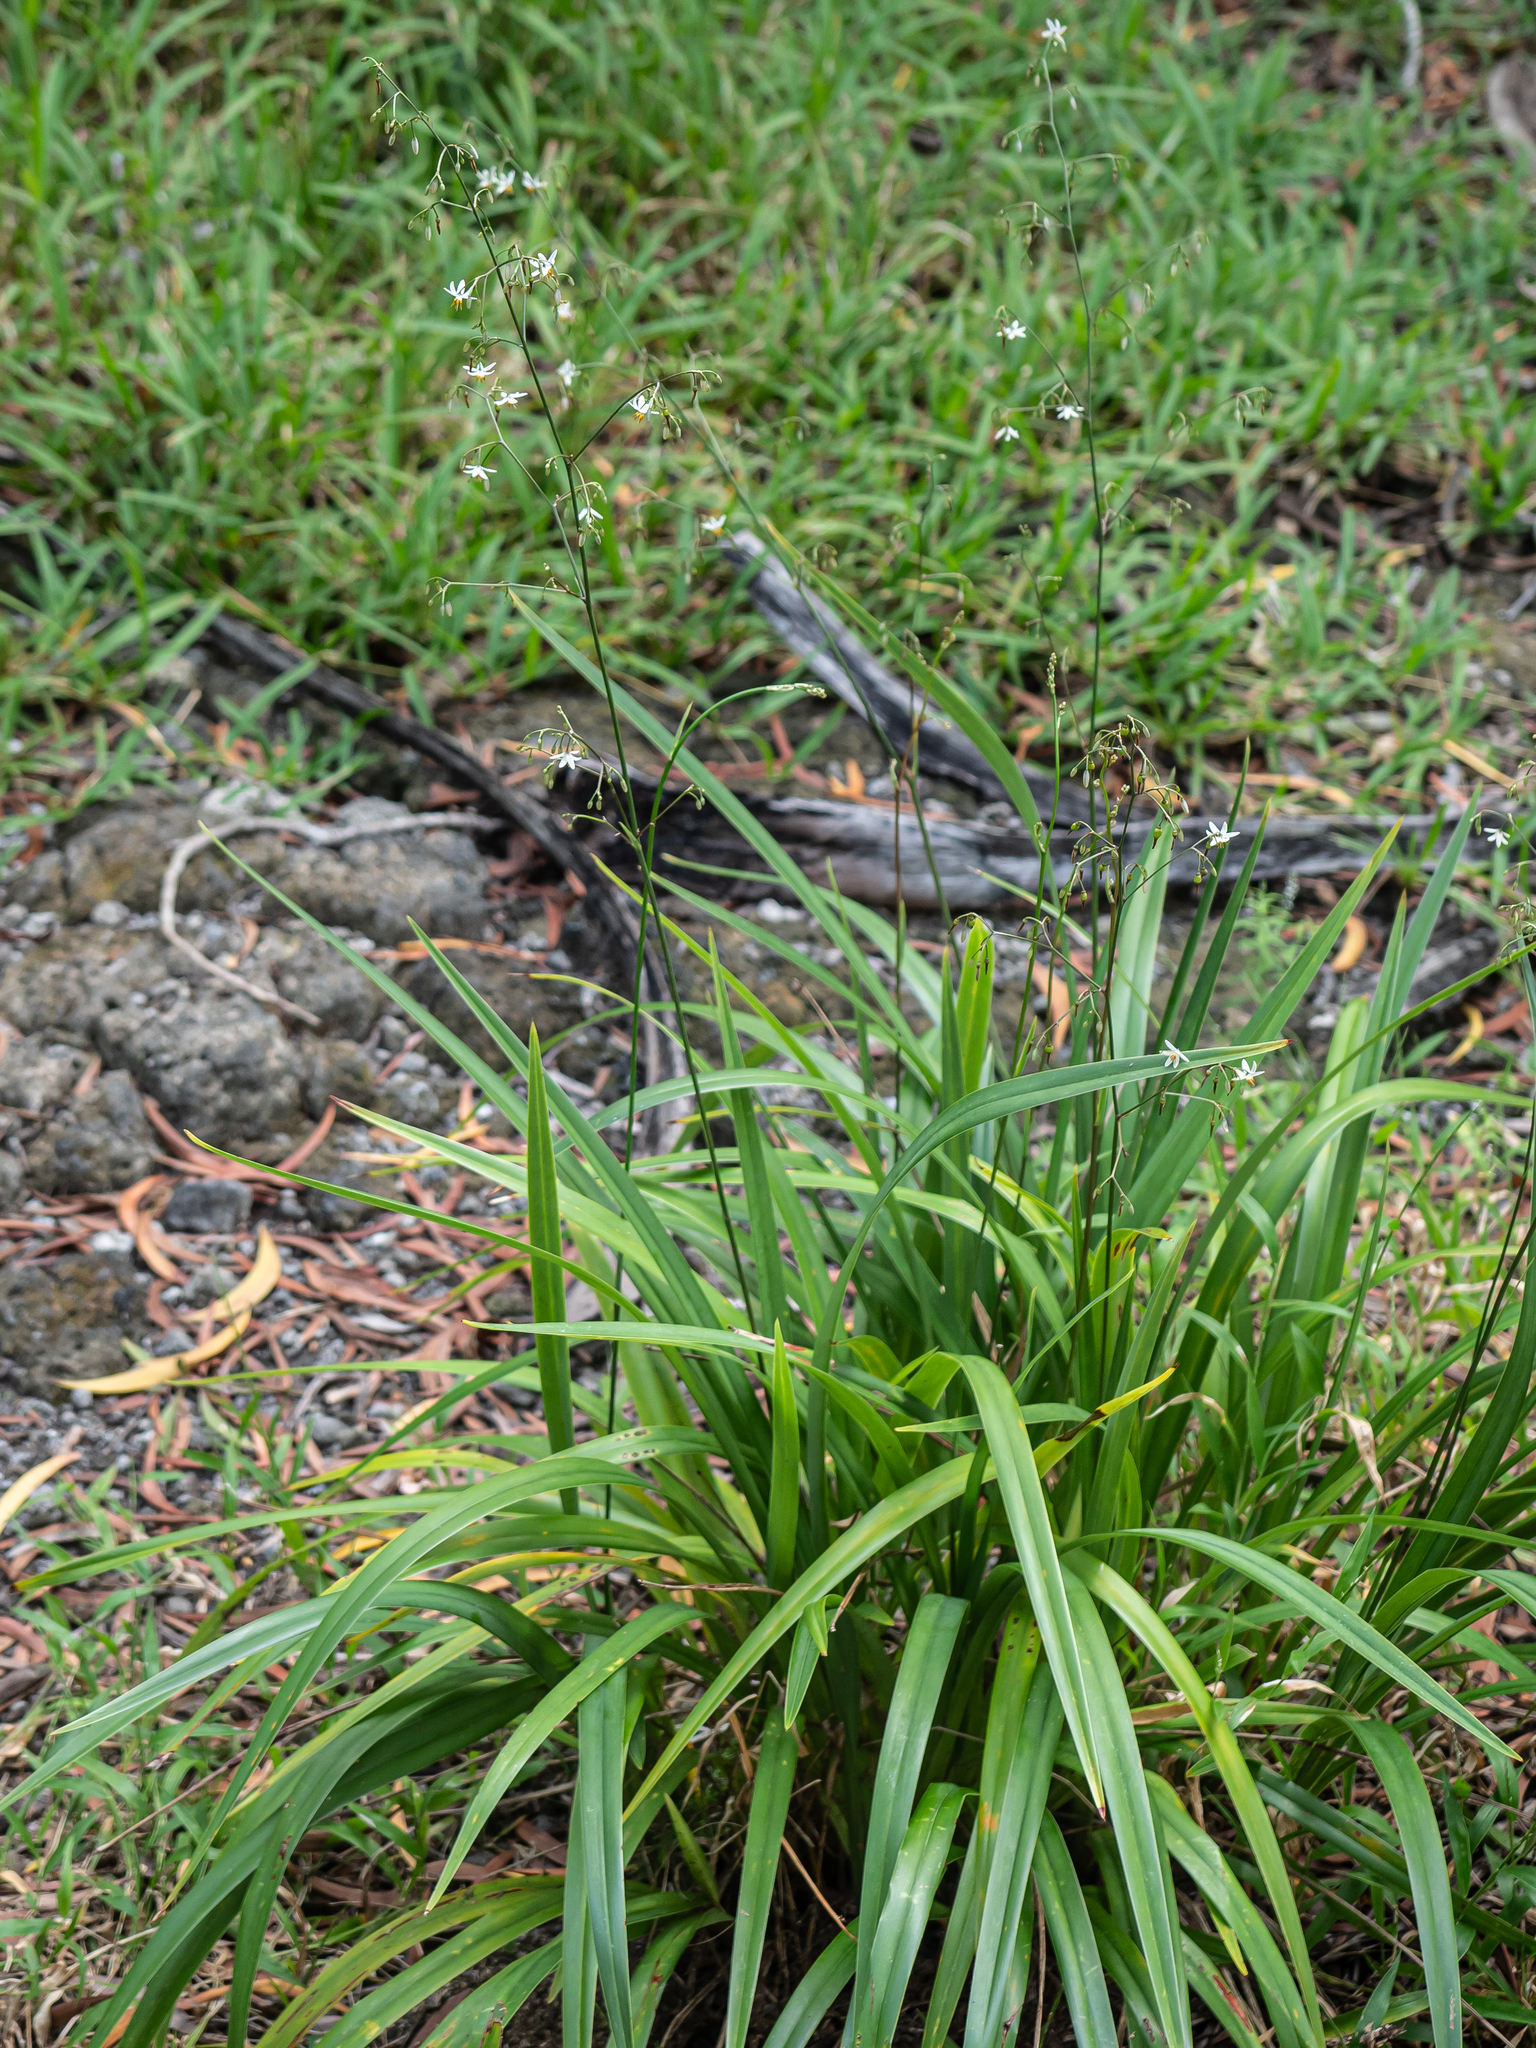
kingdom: Plantae
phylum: Tracheophyta
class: Liliopsida
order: Asparagales
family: Asphodelaceae
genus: Dianella
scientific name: Dianella adenanthera
